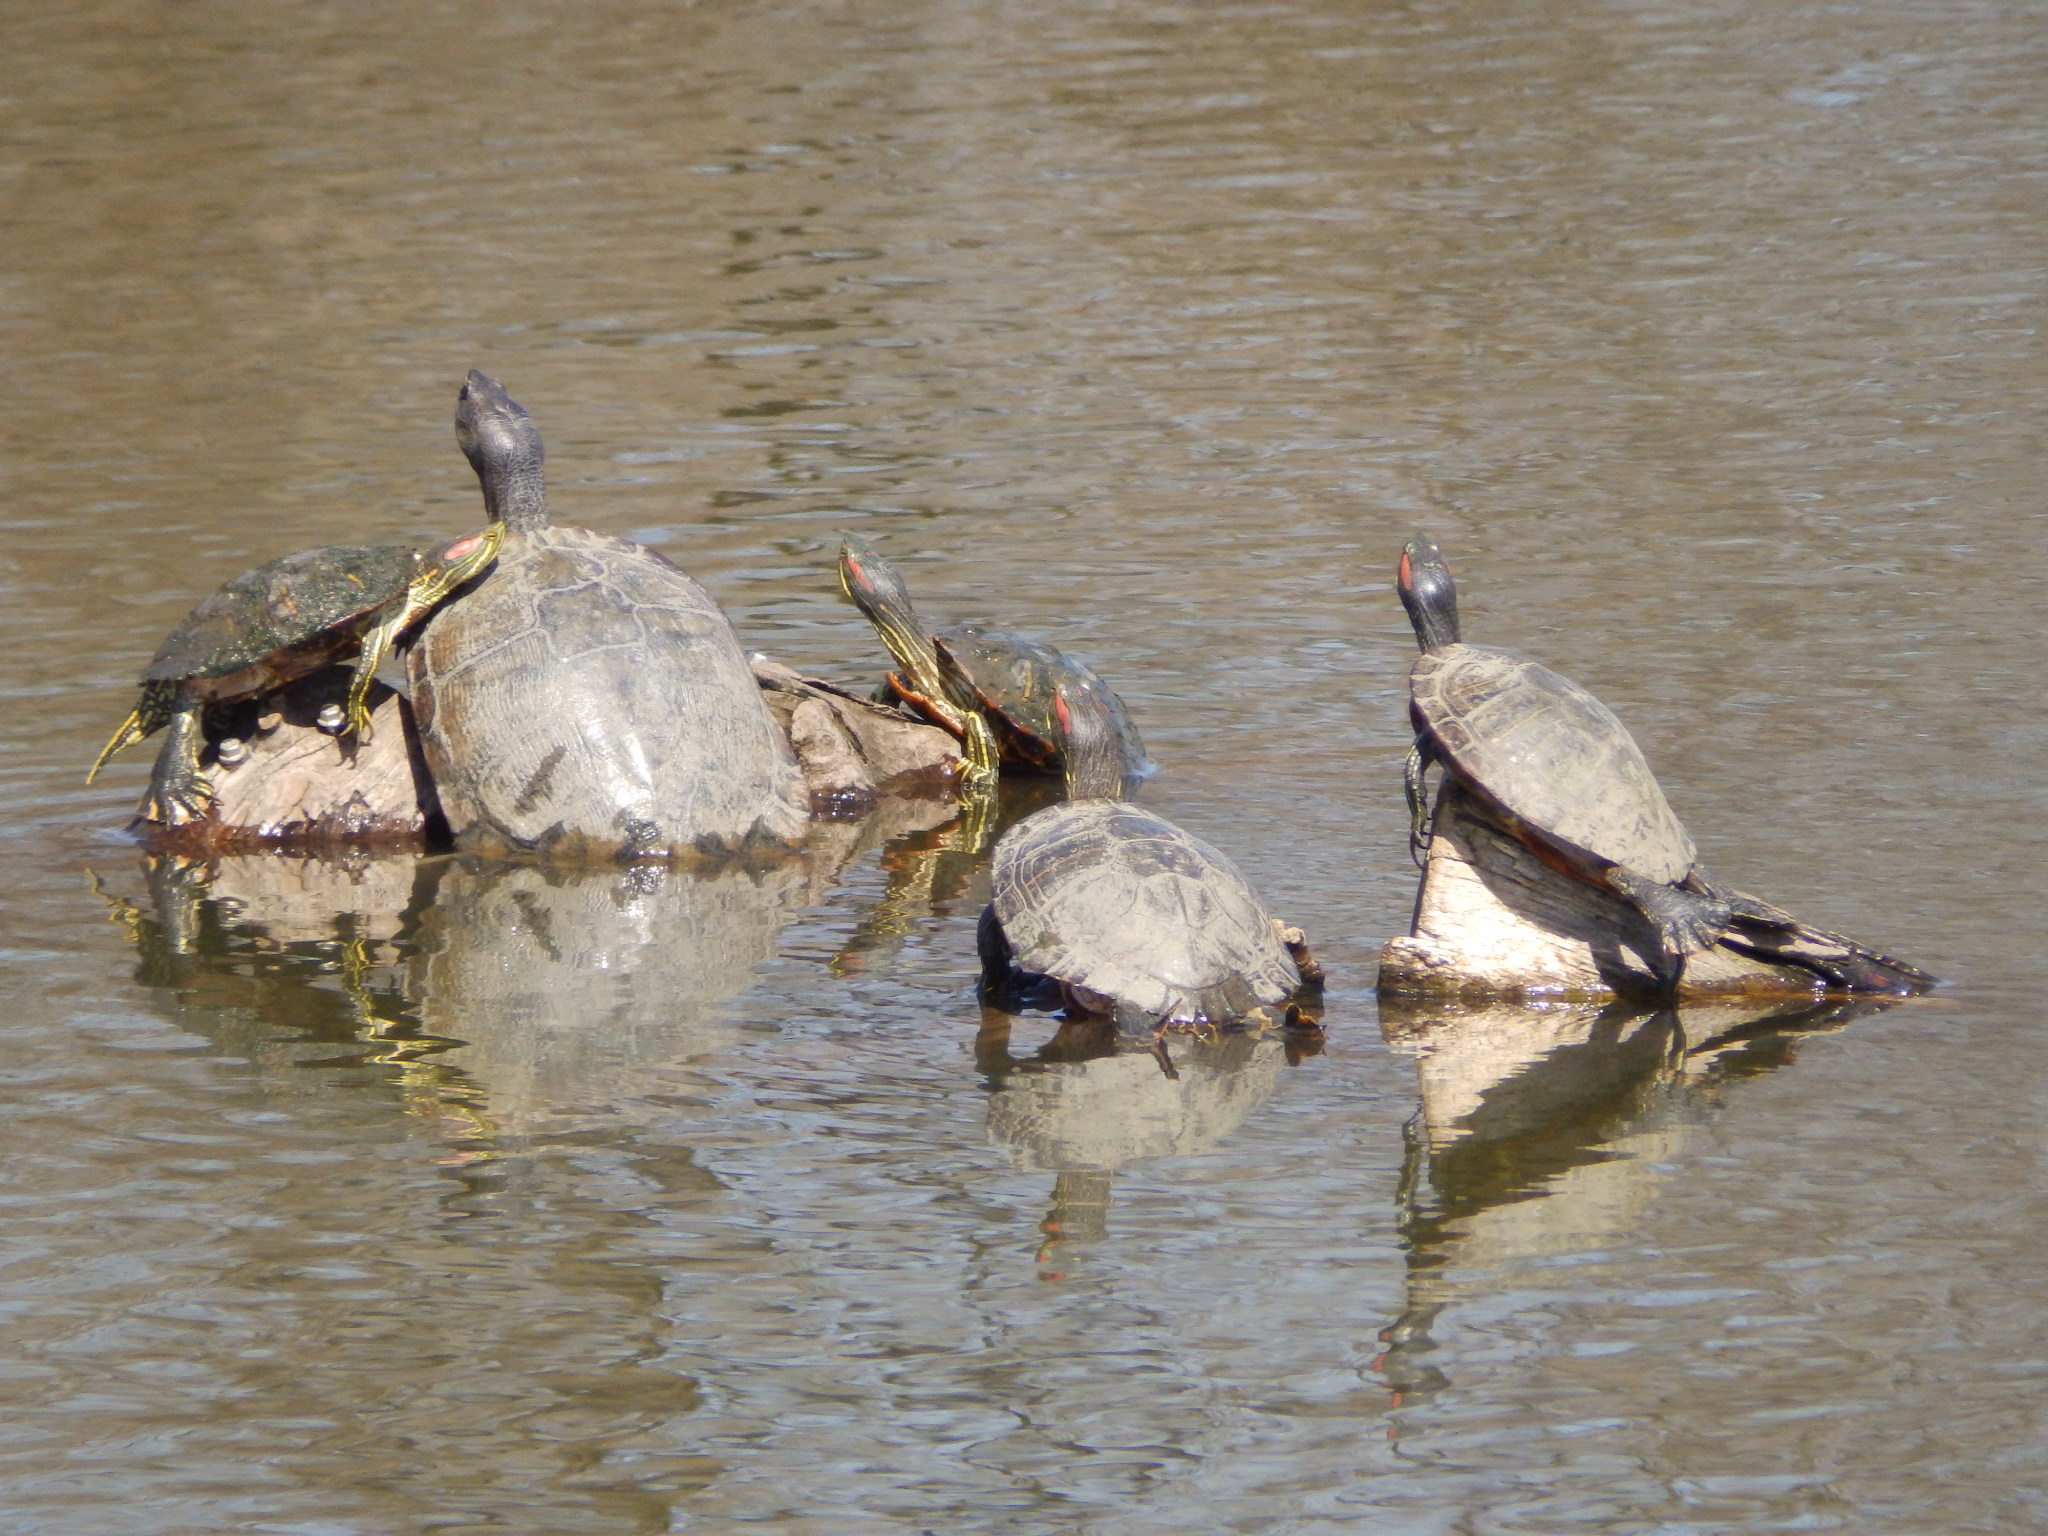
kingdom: Animalia
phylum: Chordata
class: Testudines
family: Emydidae
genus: Trachemys
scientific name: Trachemys scripta
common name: Slider
